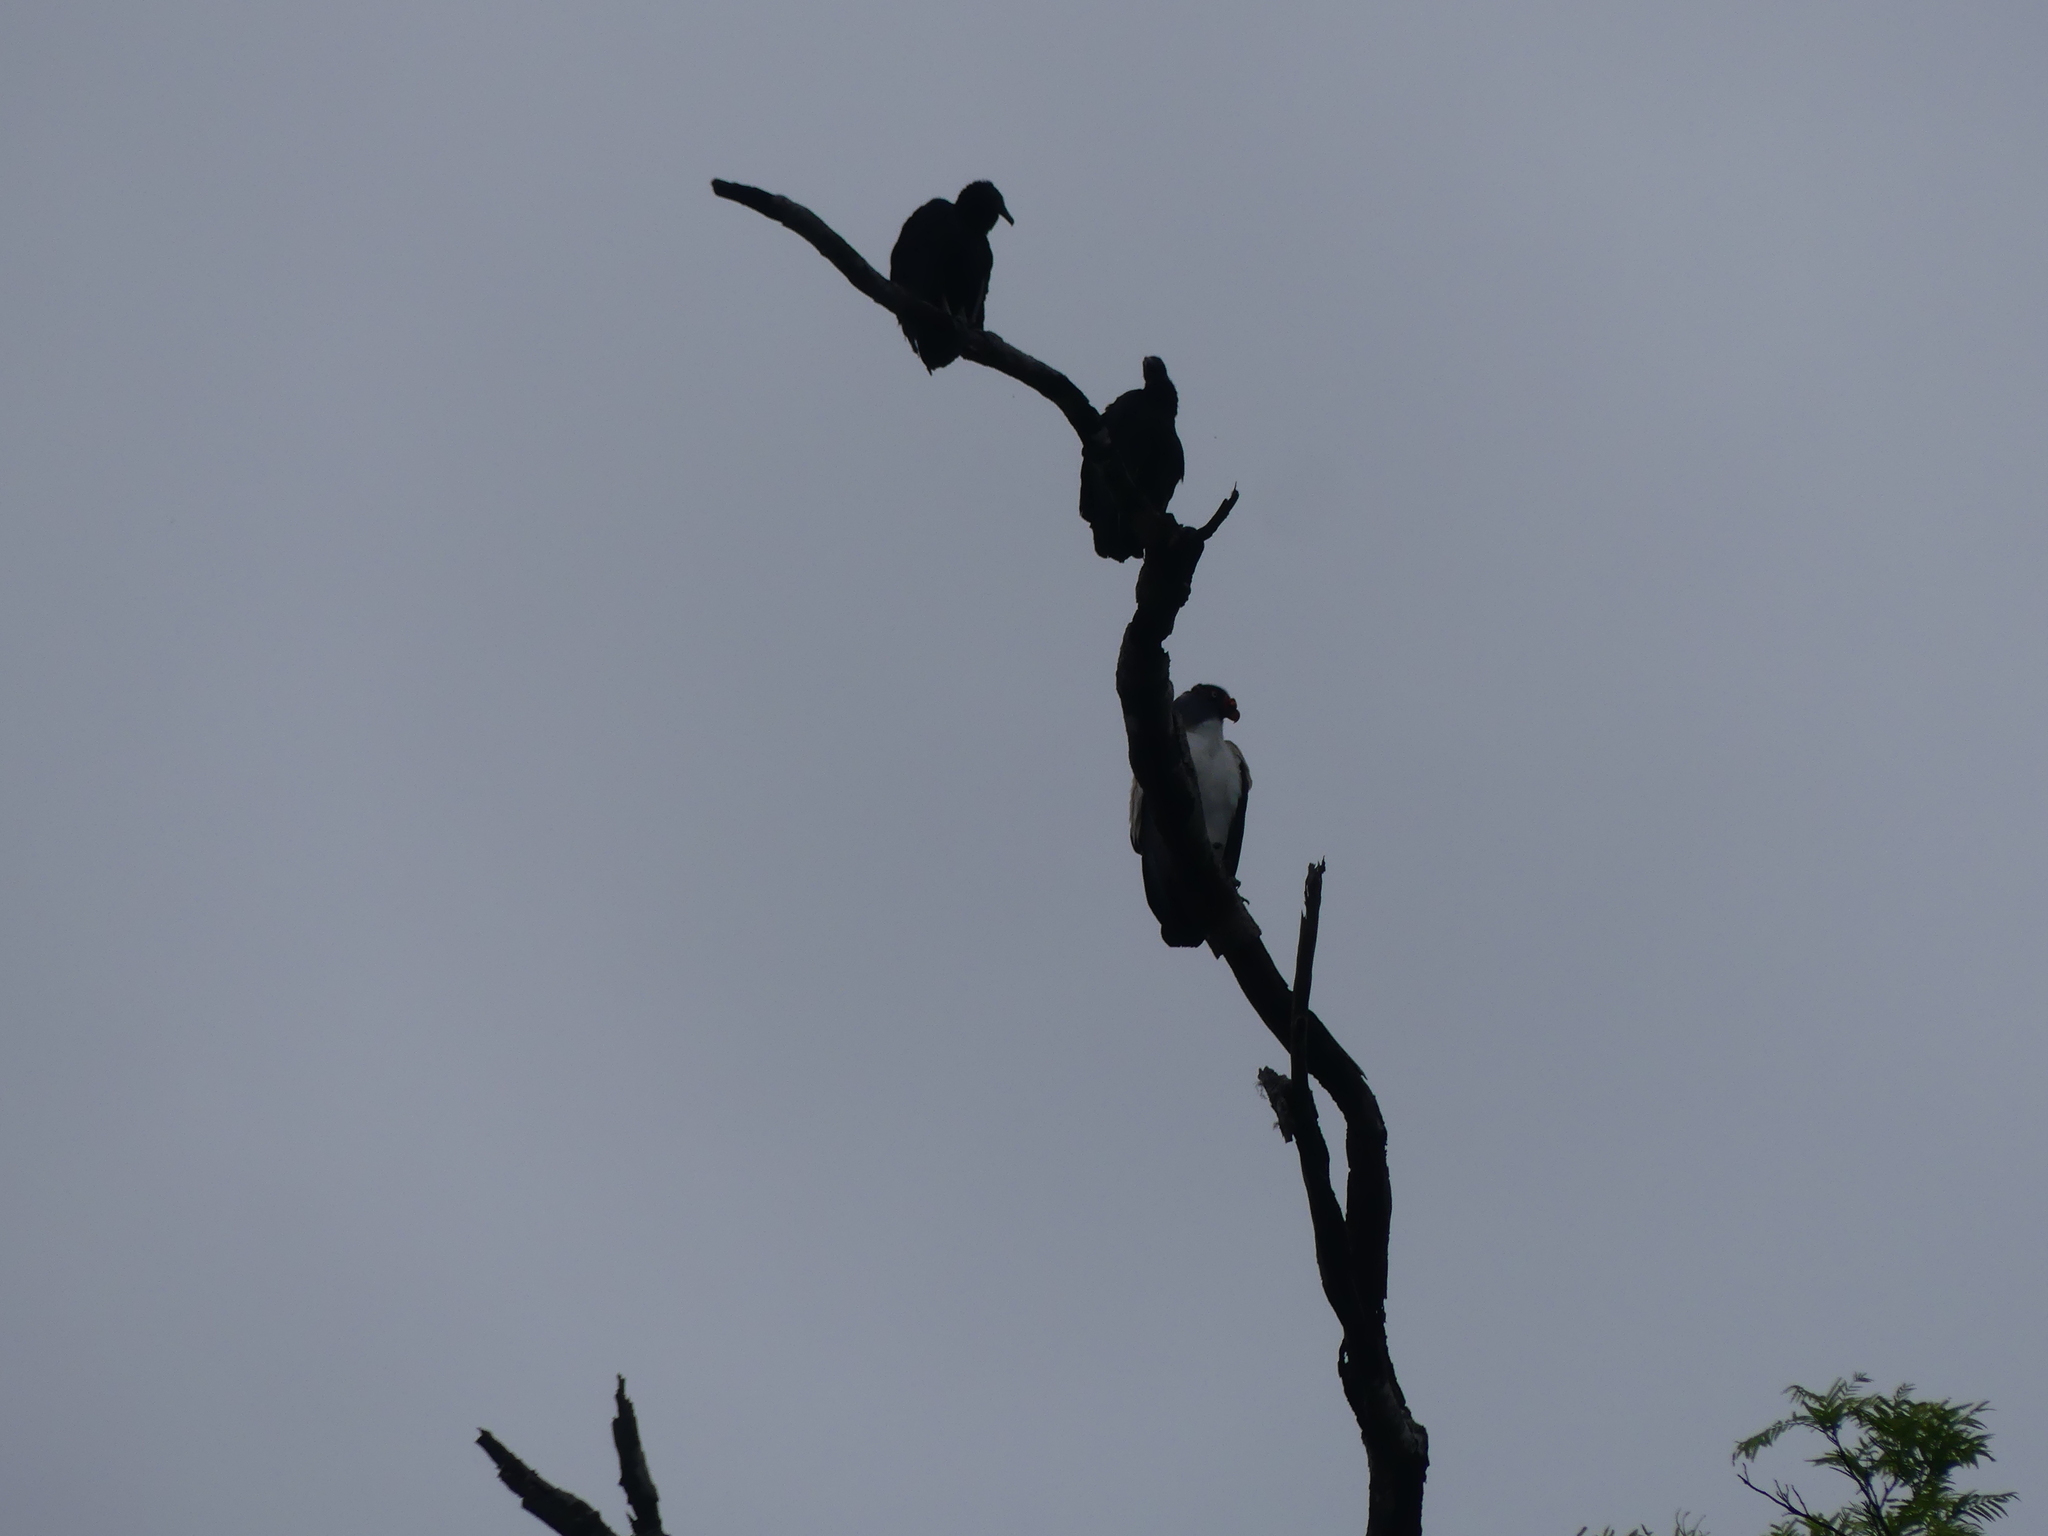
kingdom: Animalia
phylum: Chordata
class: Aves
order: Accipitriformes
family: Cathartidae
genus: Coragyps
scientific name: Coragyps atratus
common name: Black vulture
